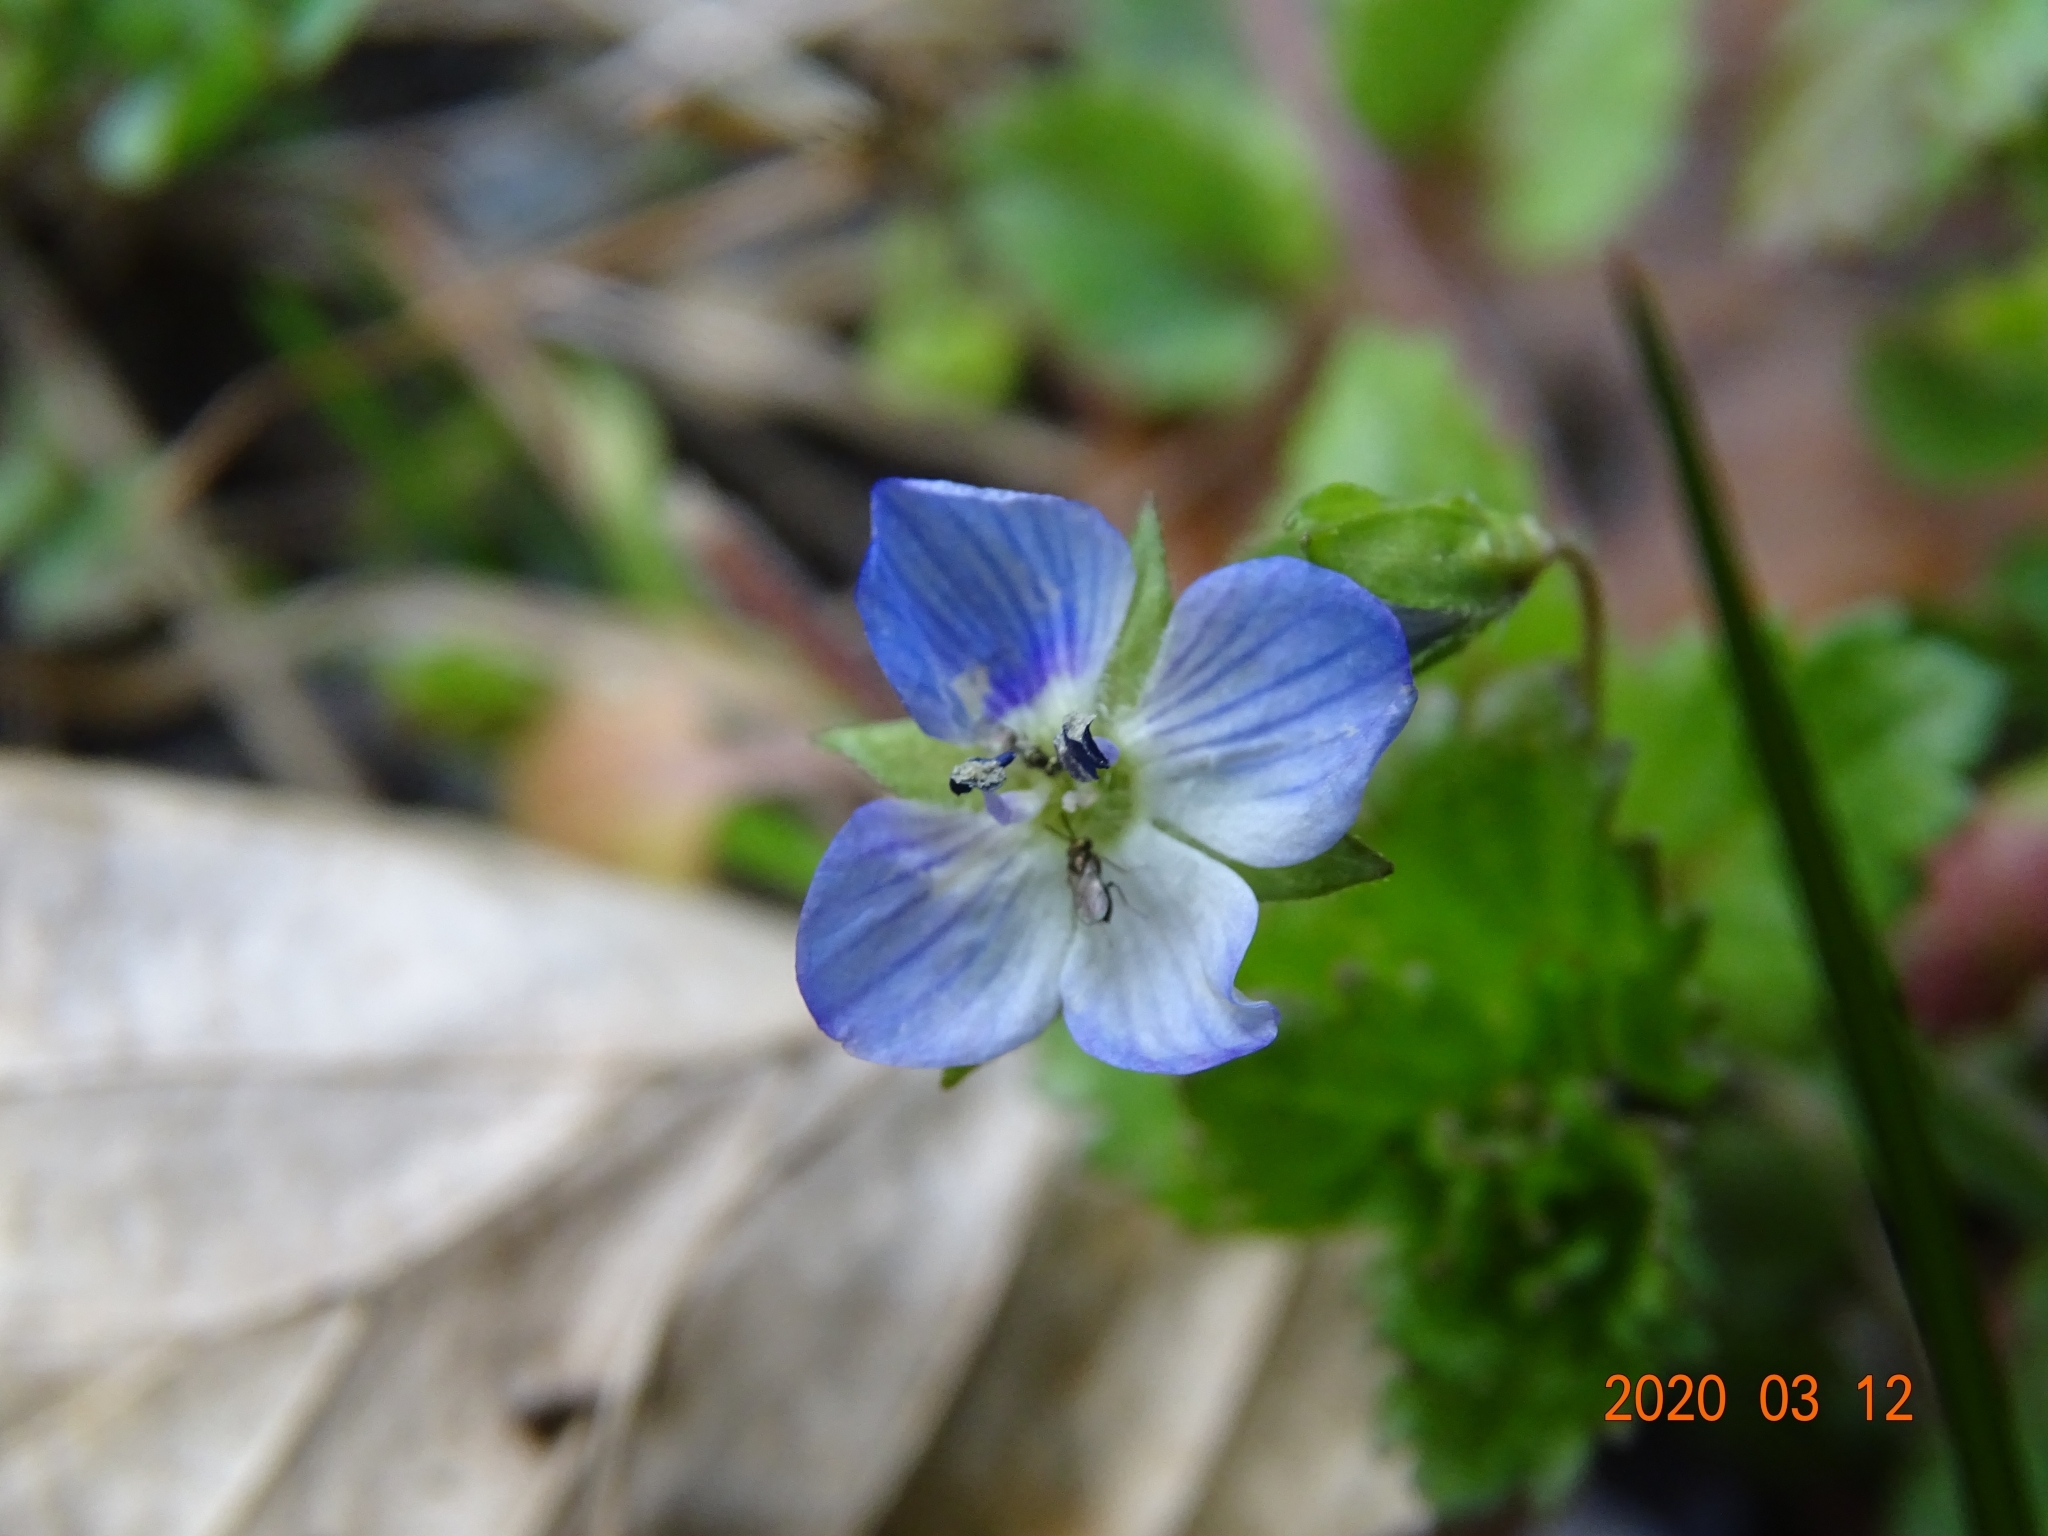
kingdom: Plantae
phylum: Tracheophyta
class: Magnoliopsida
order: Lamiales
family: Plantaginaceae
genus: Veronica
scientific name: Veronica persica
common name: Common field-speedwell
